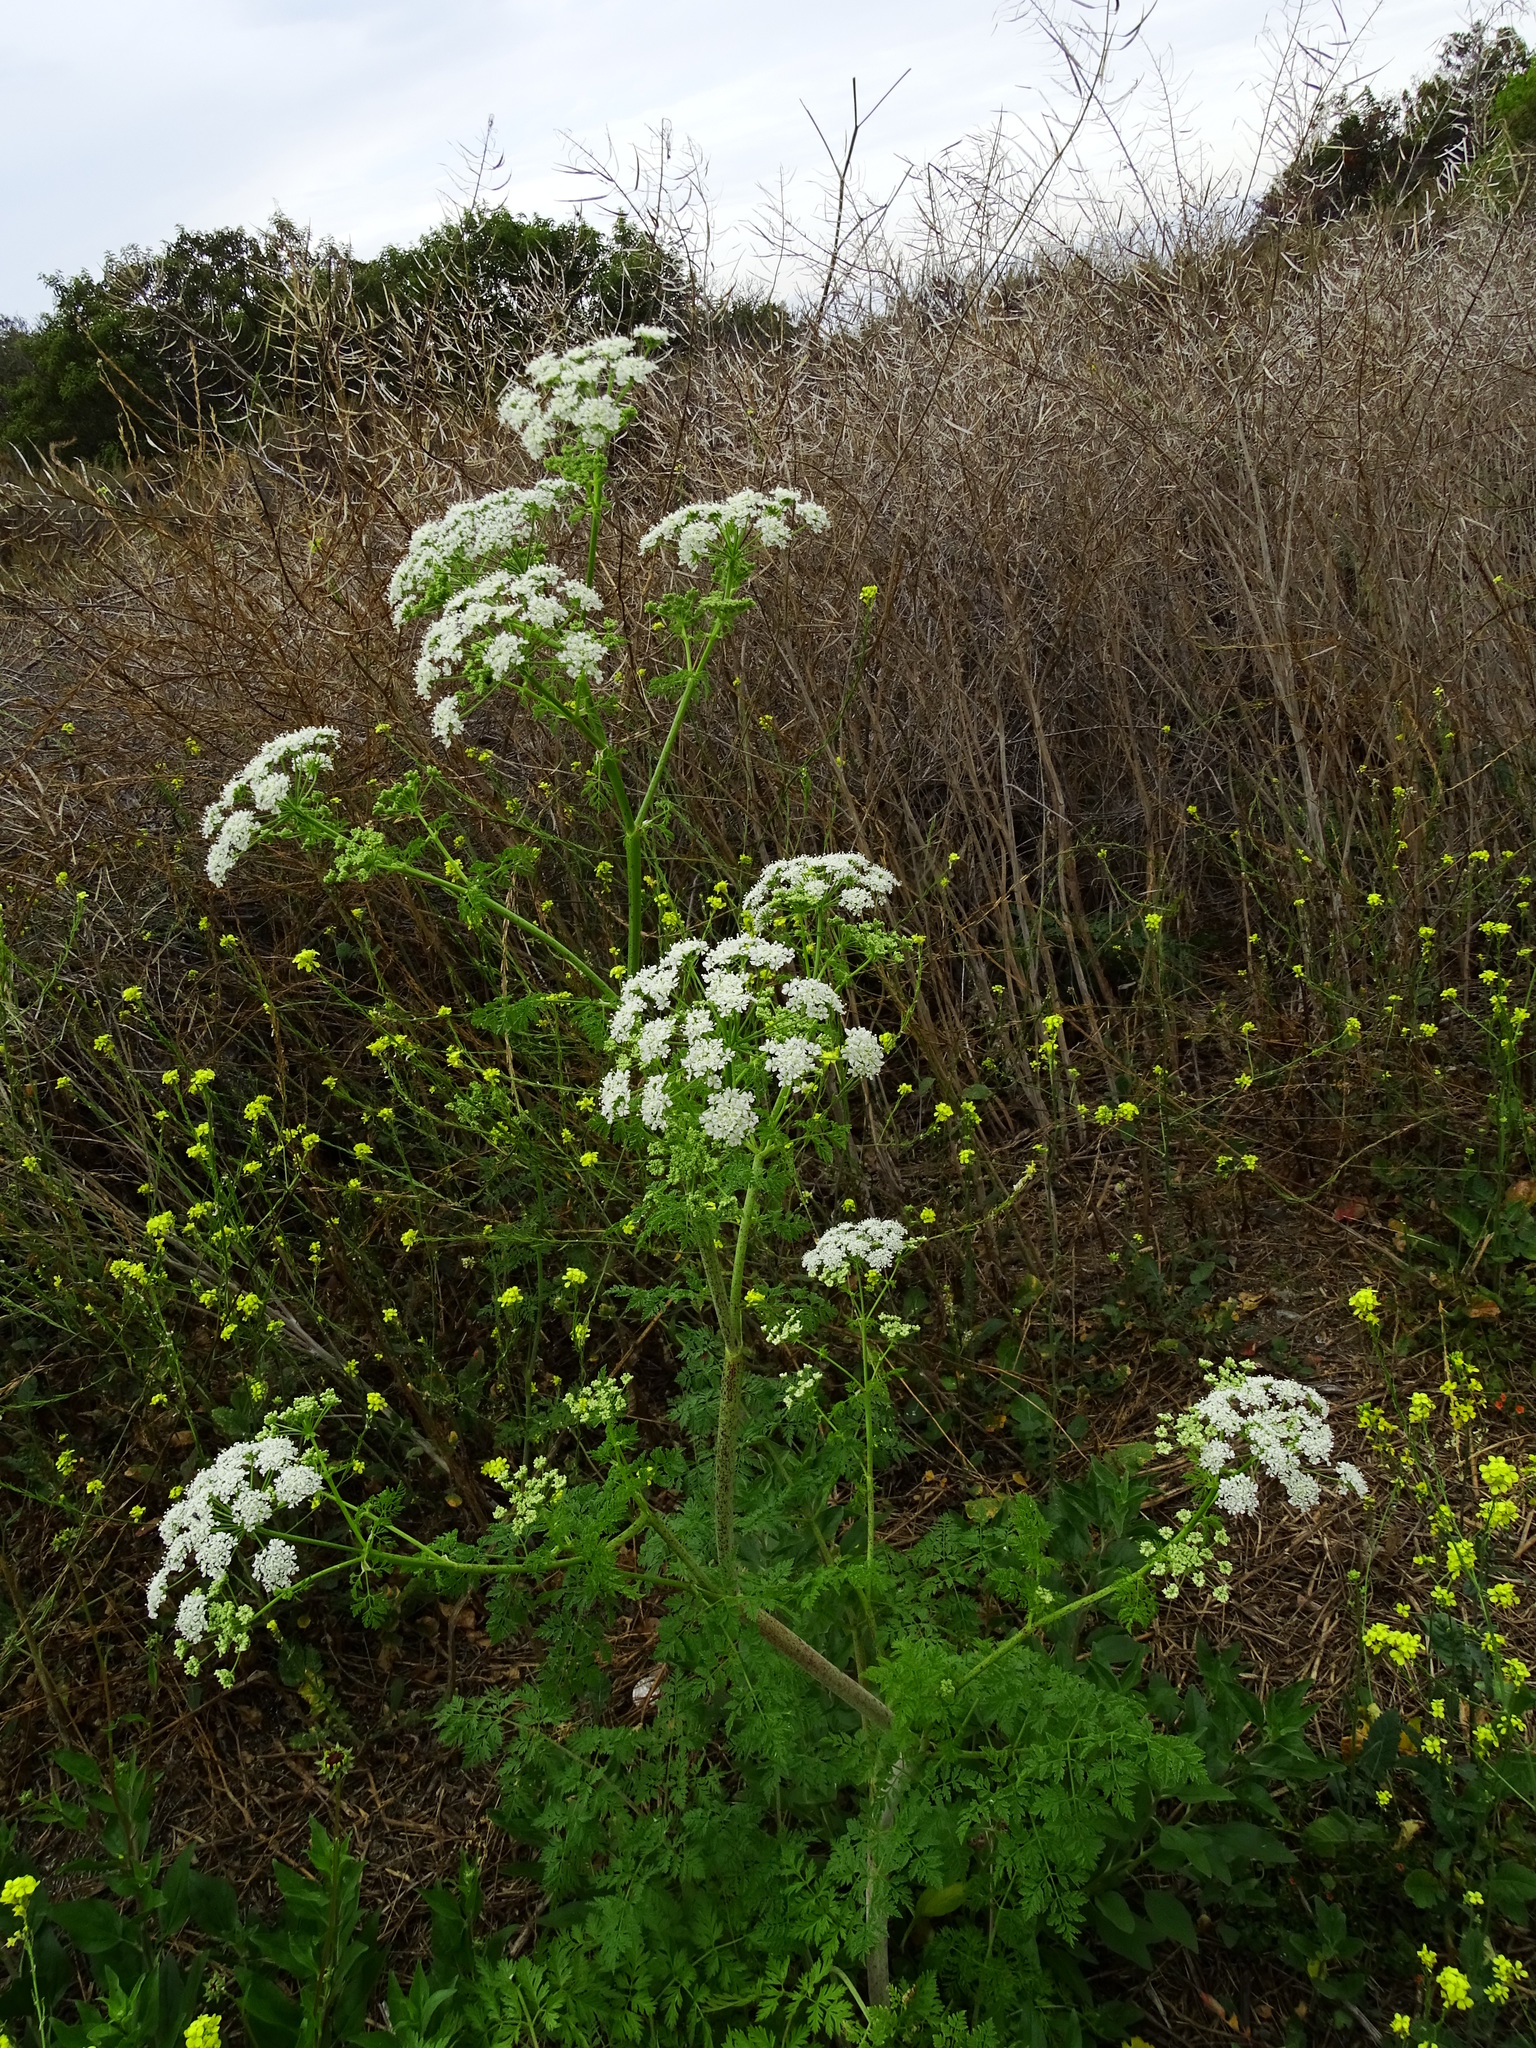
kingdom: Plantae
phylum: Tracheophyta
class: Magnoliopsida
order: Apiales
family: Apiaceae
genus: Conium
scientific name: Conium maculatum
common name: Hemlock
